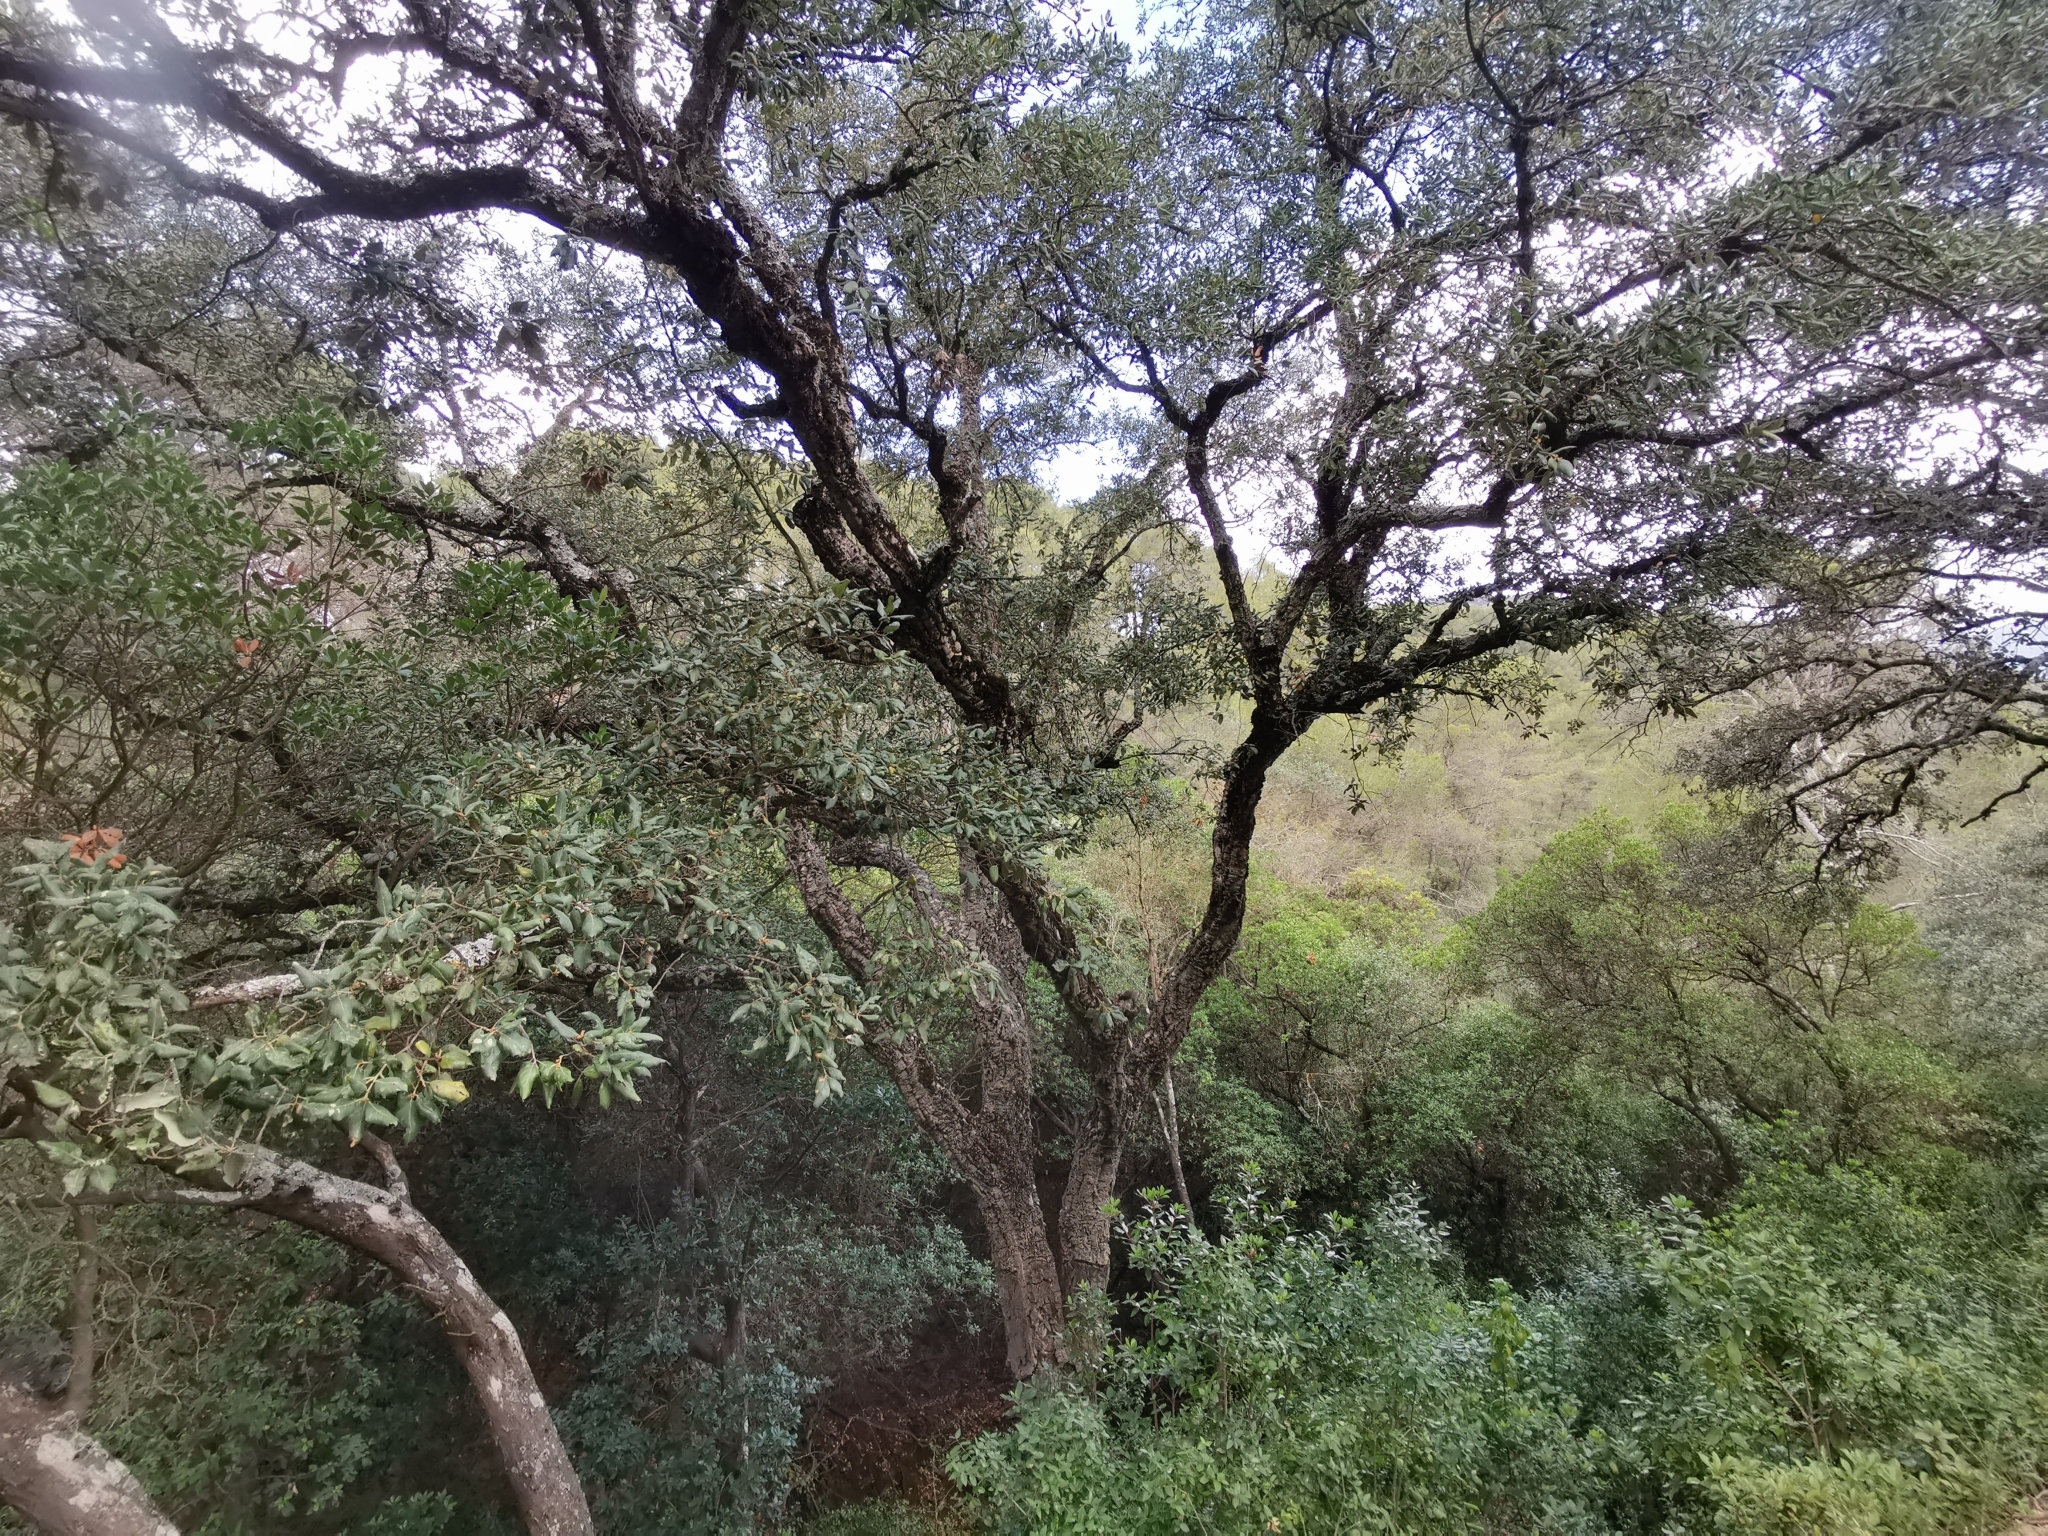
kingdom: Plantae
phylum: Tracheophyta
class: Magnoliopsida
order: Fagales
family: Fagaceae
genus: Quercus
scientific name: Quercus suber
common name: Cork oak
